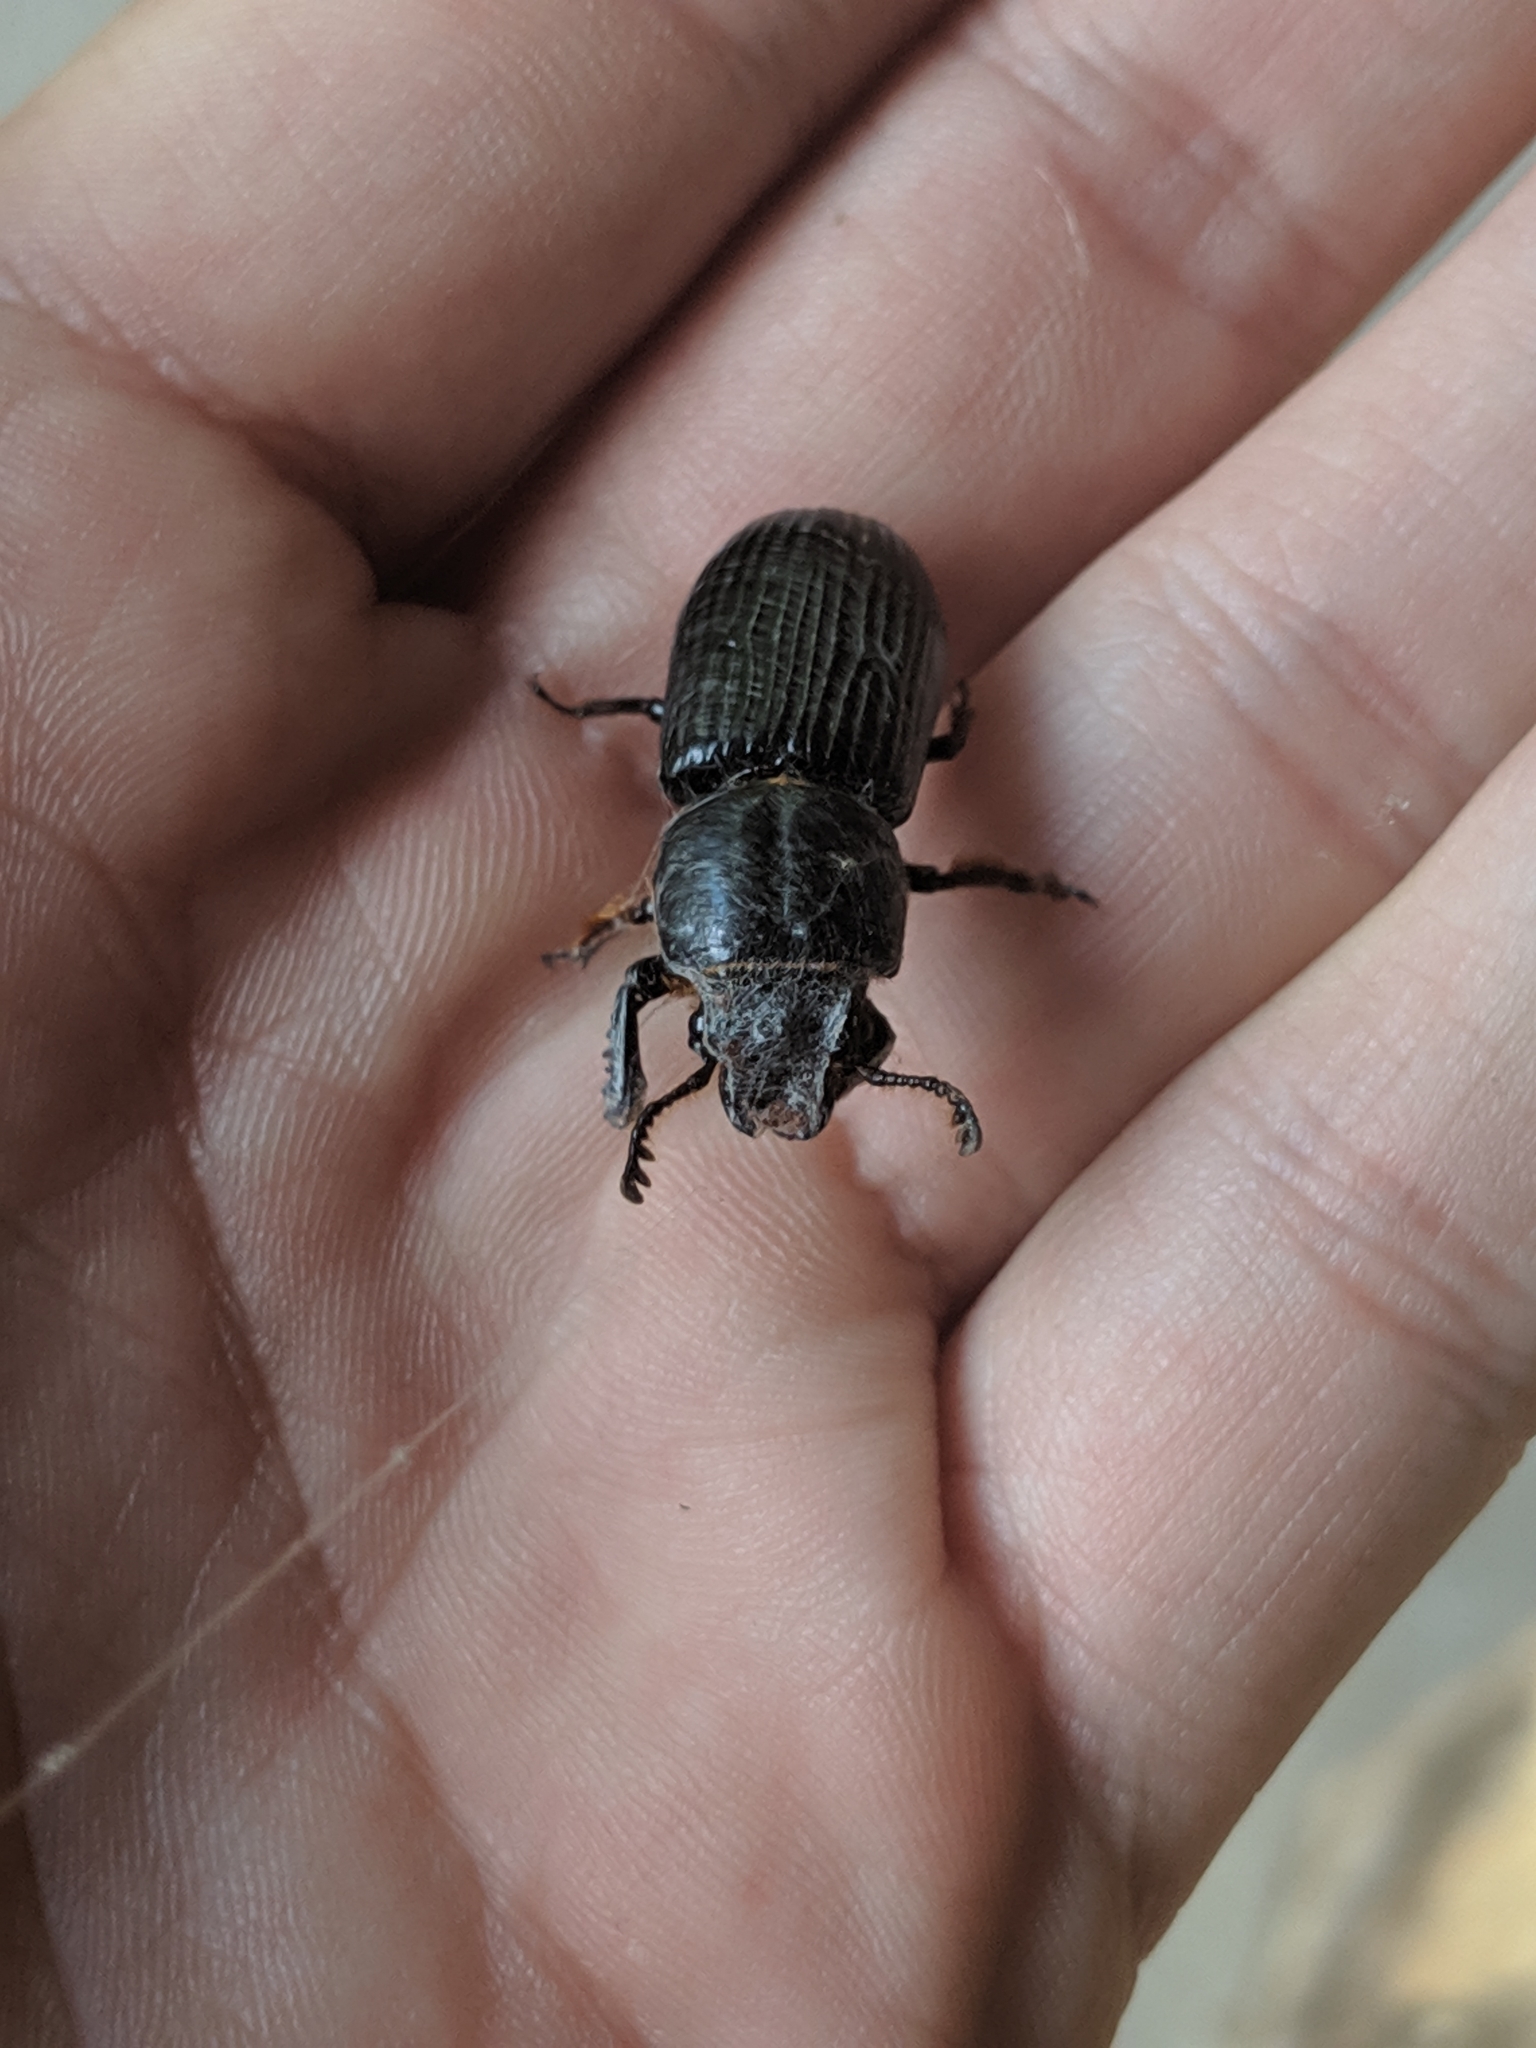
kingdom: Animalia
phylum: Arthropoda
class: Insecta
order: Coleoptera
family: Passalidae
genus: Odontotaenius
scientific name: Odontotaenius disjunctus
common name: Patent leather beetle
